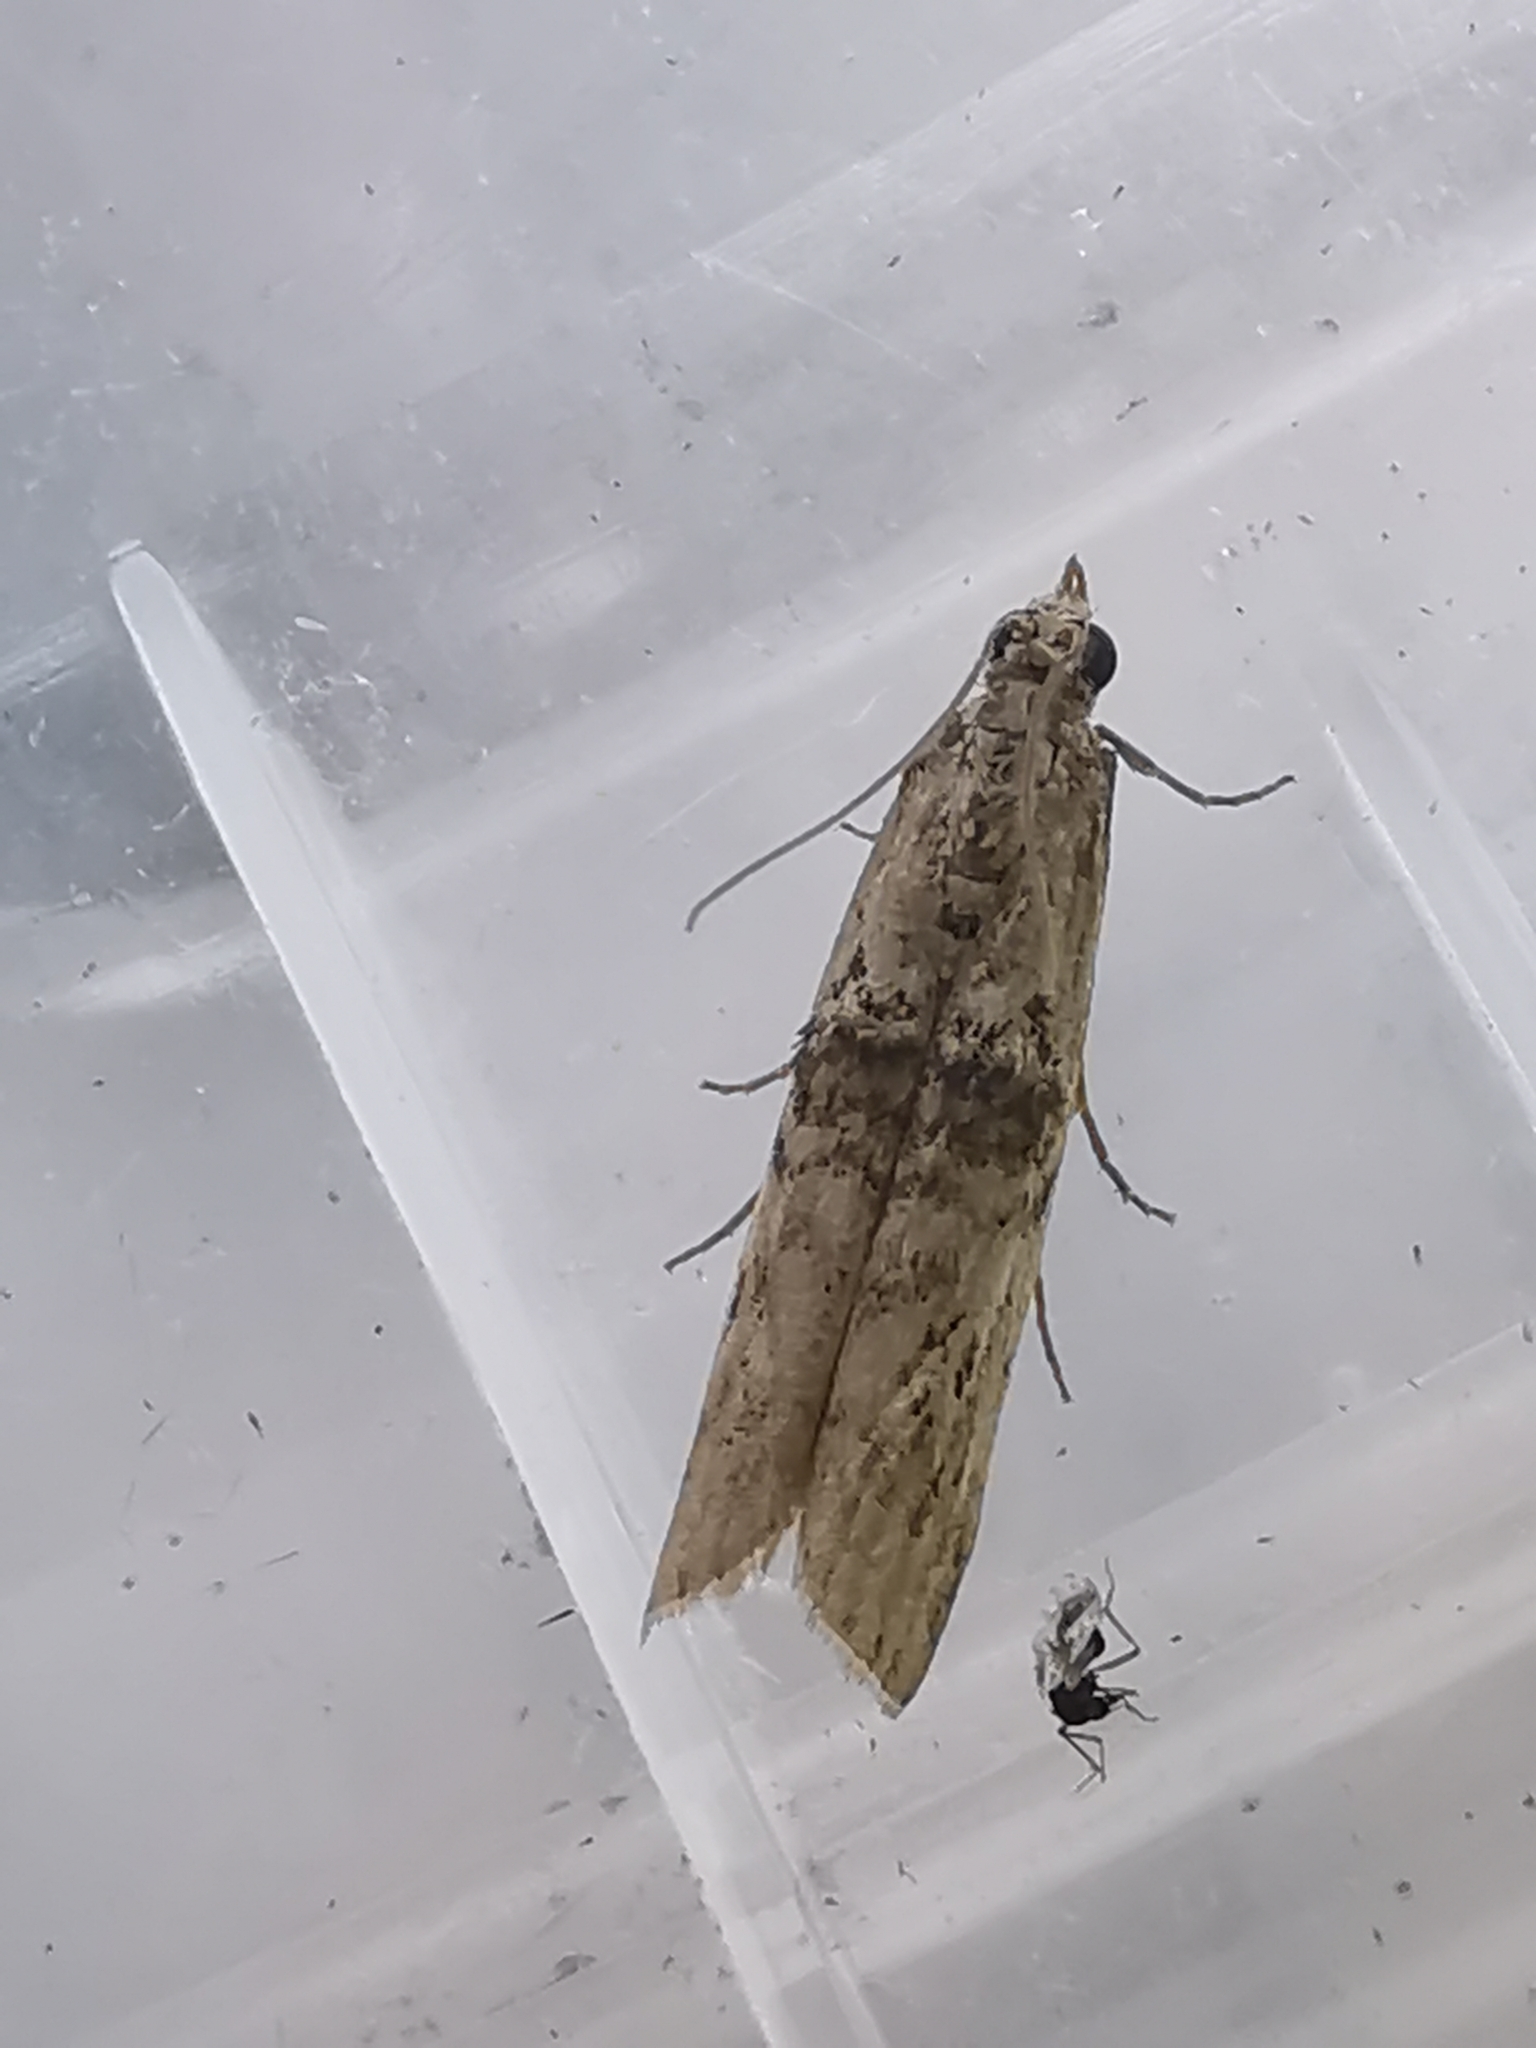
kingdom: Animalia
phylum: Arthropoda
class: Insecta
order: Lepidoptera
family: Pyralidae
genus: Nephopterix
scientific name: Nephopterix angustella
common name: Spindle knot-horn
